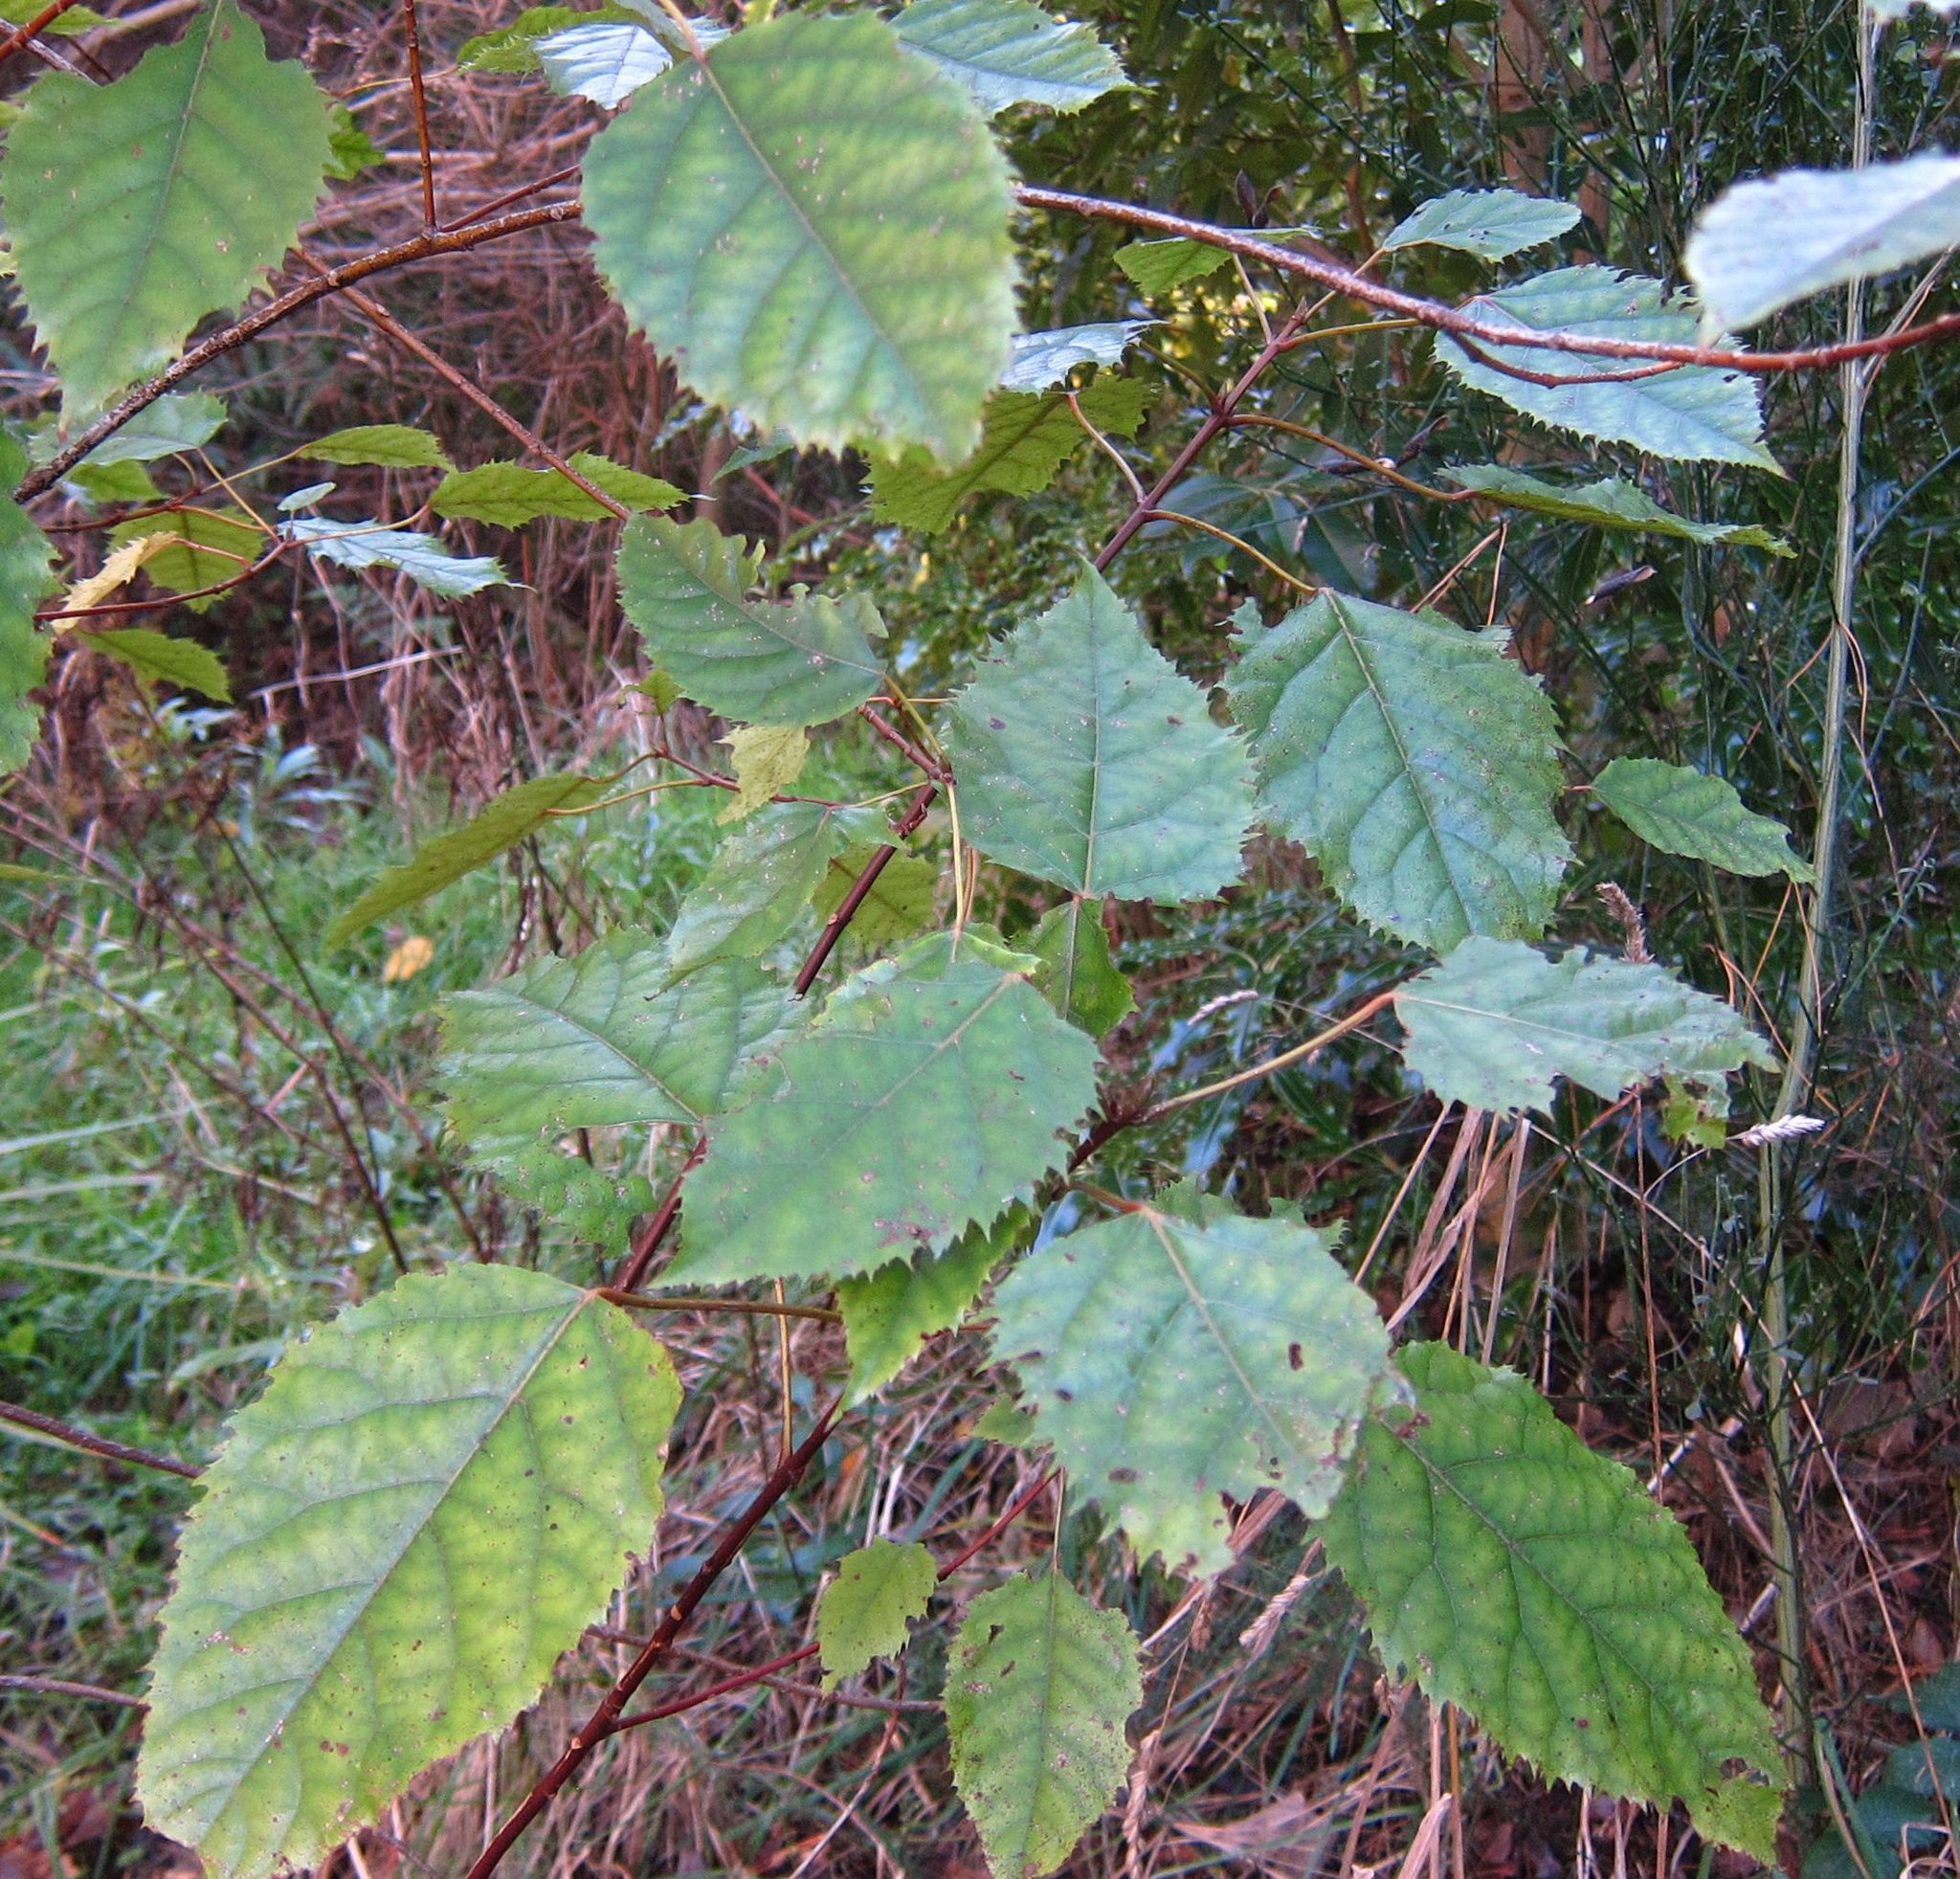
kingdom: Plantae
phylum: Tracheophyta
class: Magnoliopsida
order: Oxalidales
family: Elaeocarpaceae
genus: Aristotelia
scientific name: Aristotelia serrata
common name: New zealand wineberry
